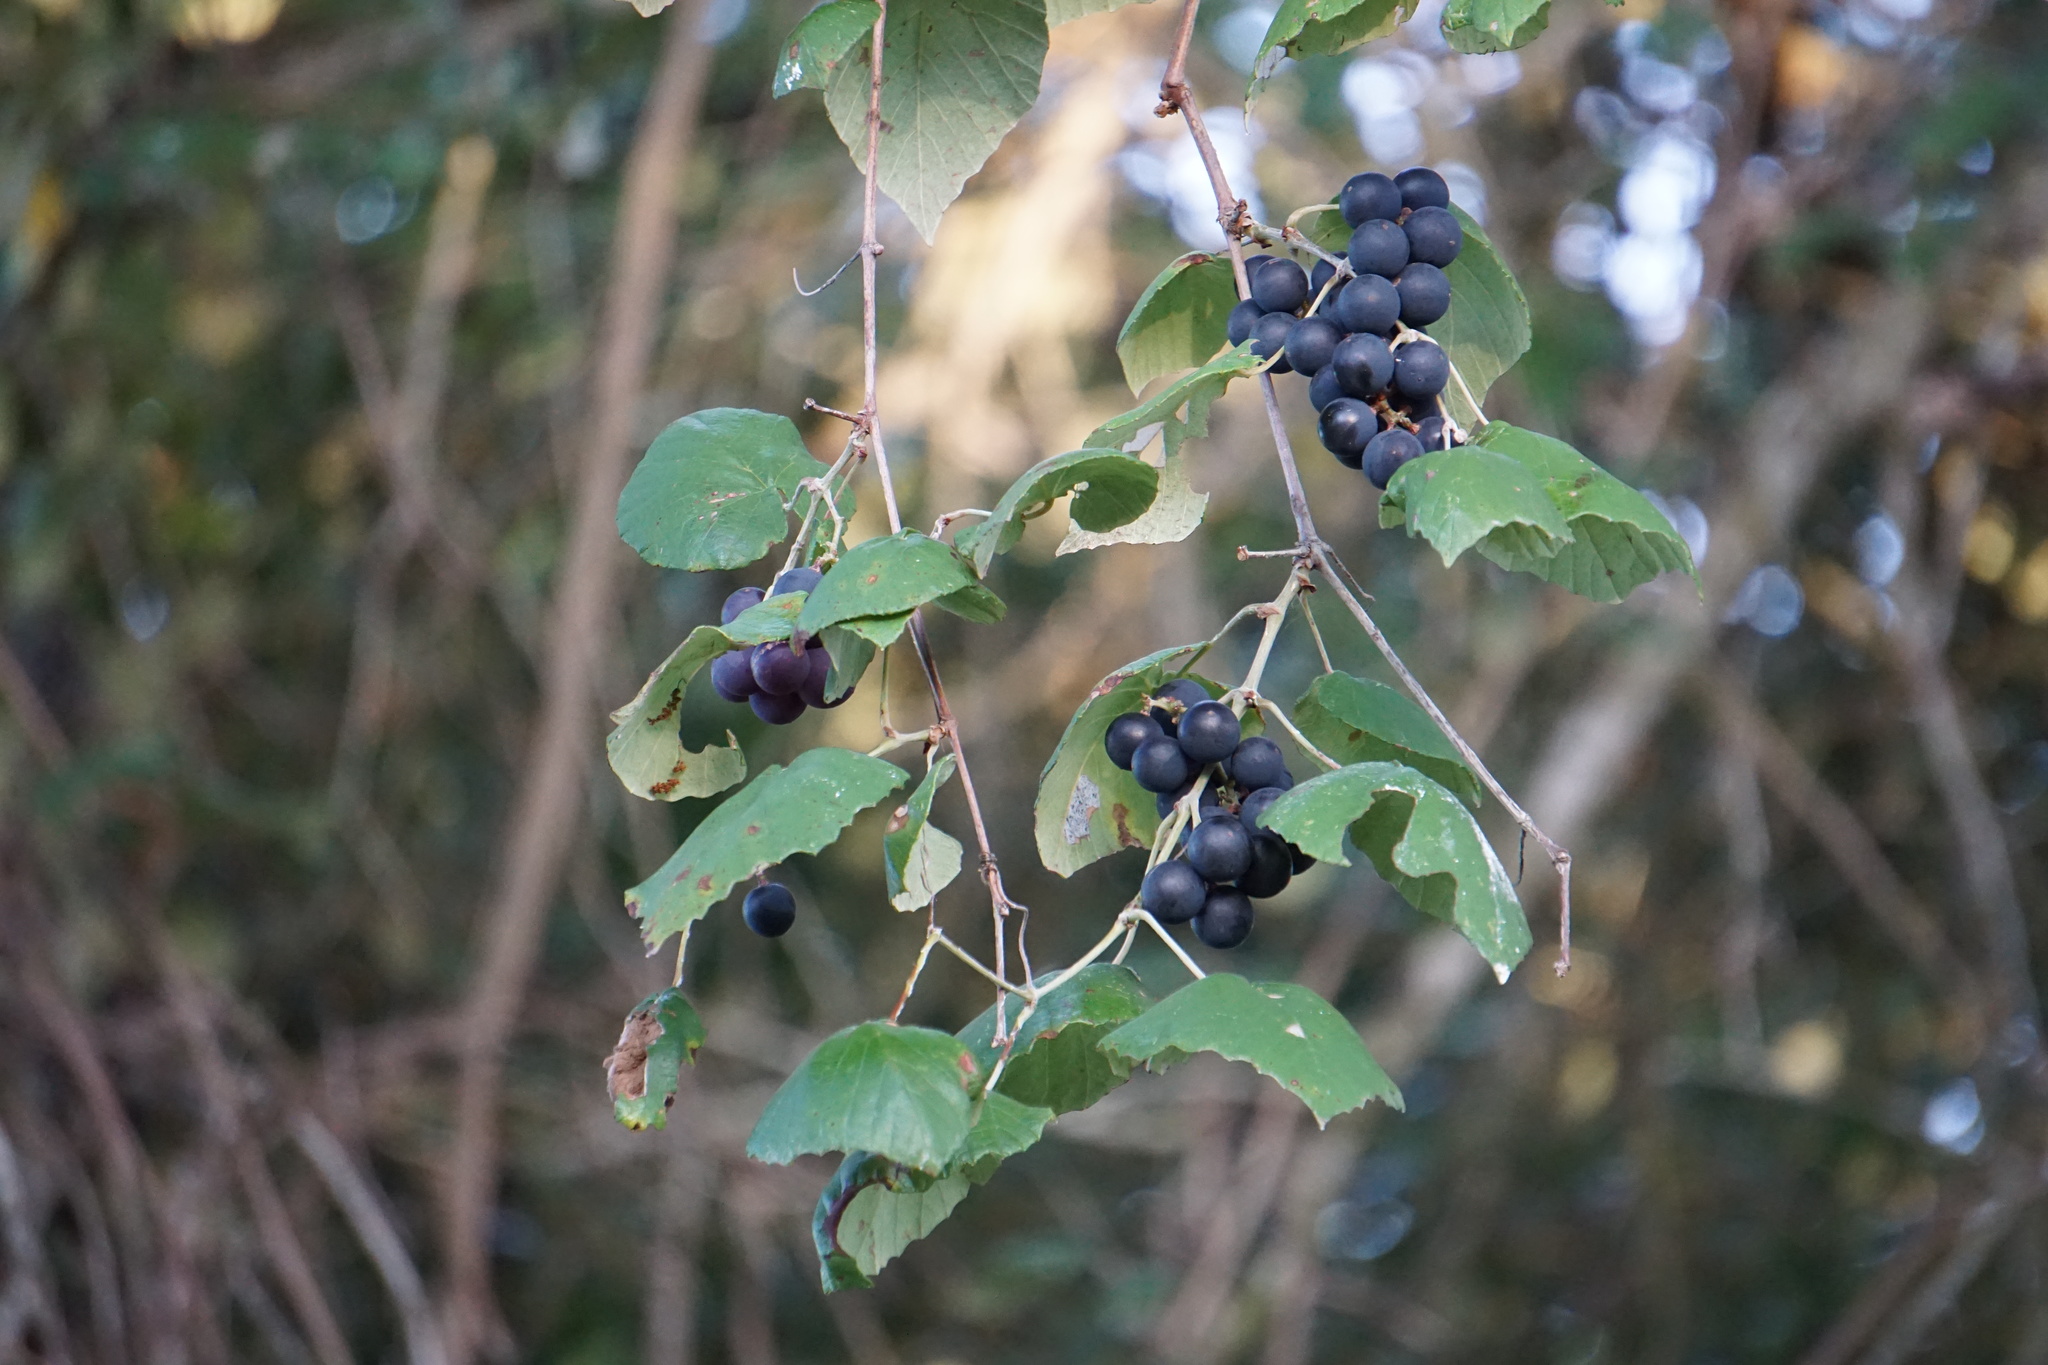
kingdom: Plantae
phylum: Tracheophyta
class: Magnoliopsida
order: Vitales
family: Vitaceae
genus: Vitis
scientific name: Vitis mustangensis
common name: Mustang grape
